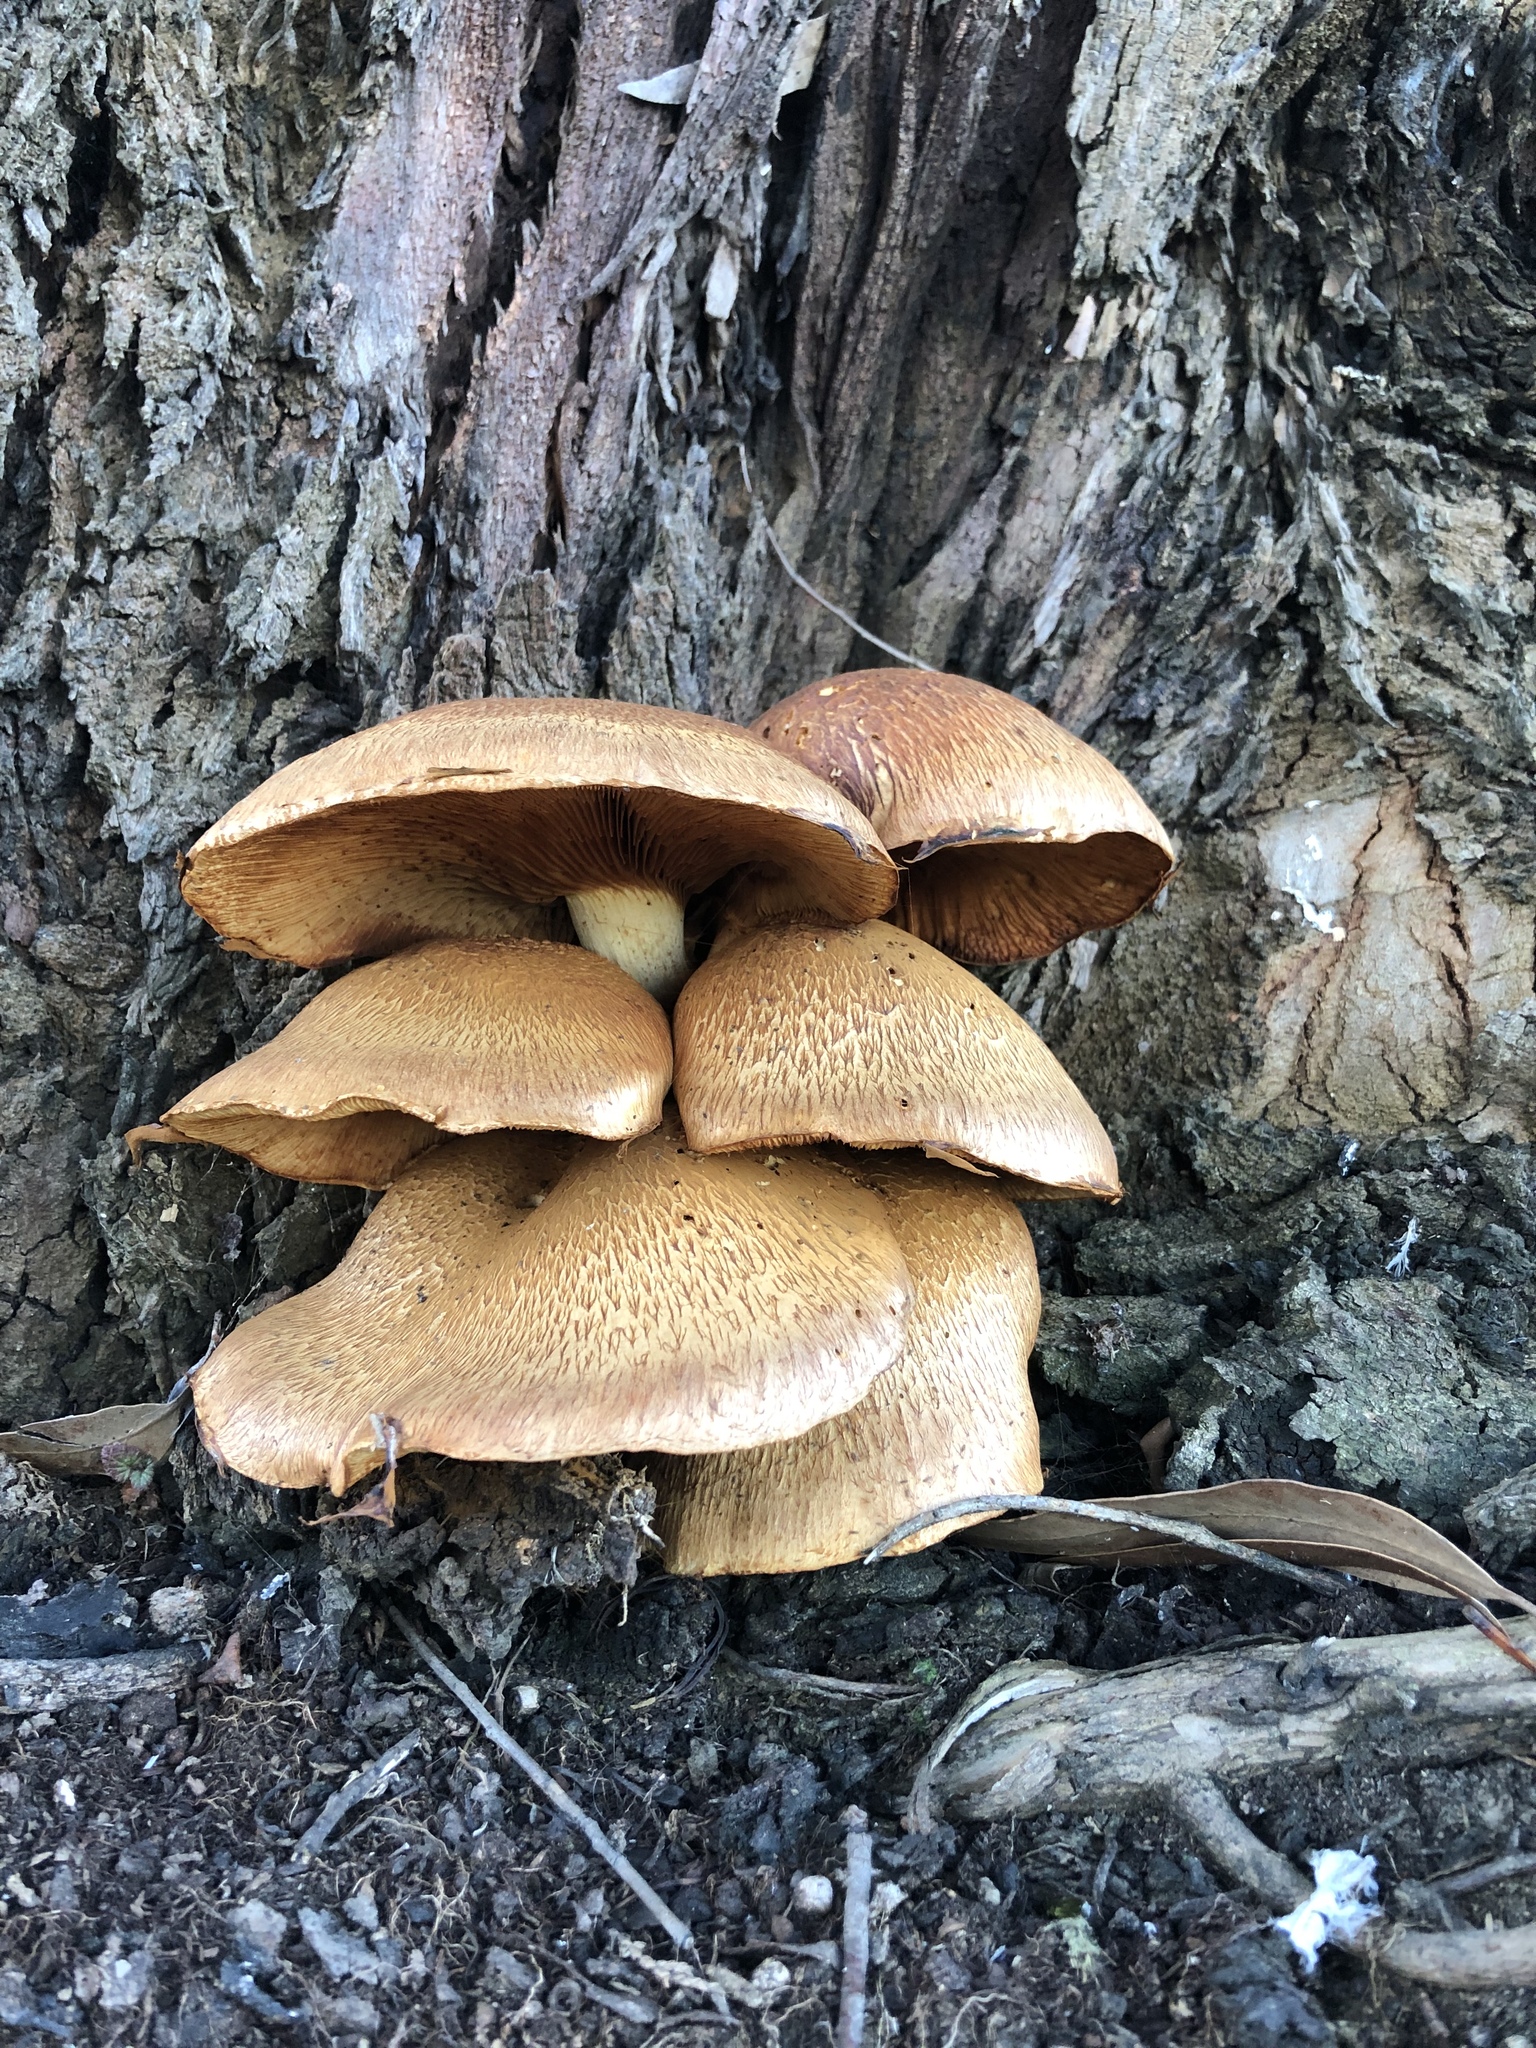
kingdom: Fungi
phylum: Basidiomycota
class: Agaricomycetes
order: Agaricales
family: Hymenogastraceae
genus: Gymnopilus
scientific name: Gymnopilus junonius
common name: Spectacular rustgill
